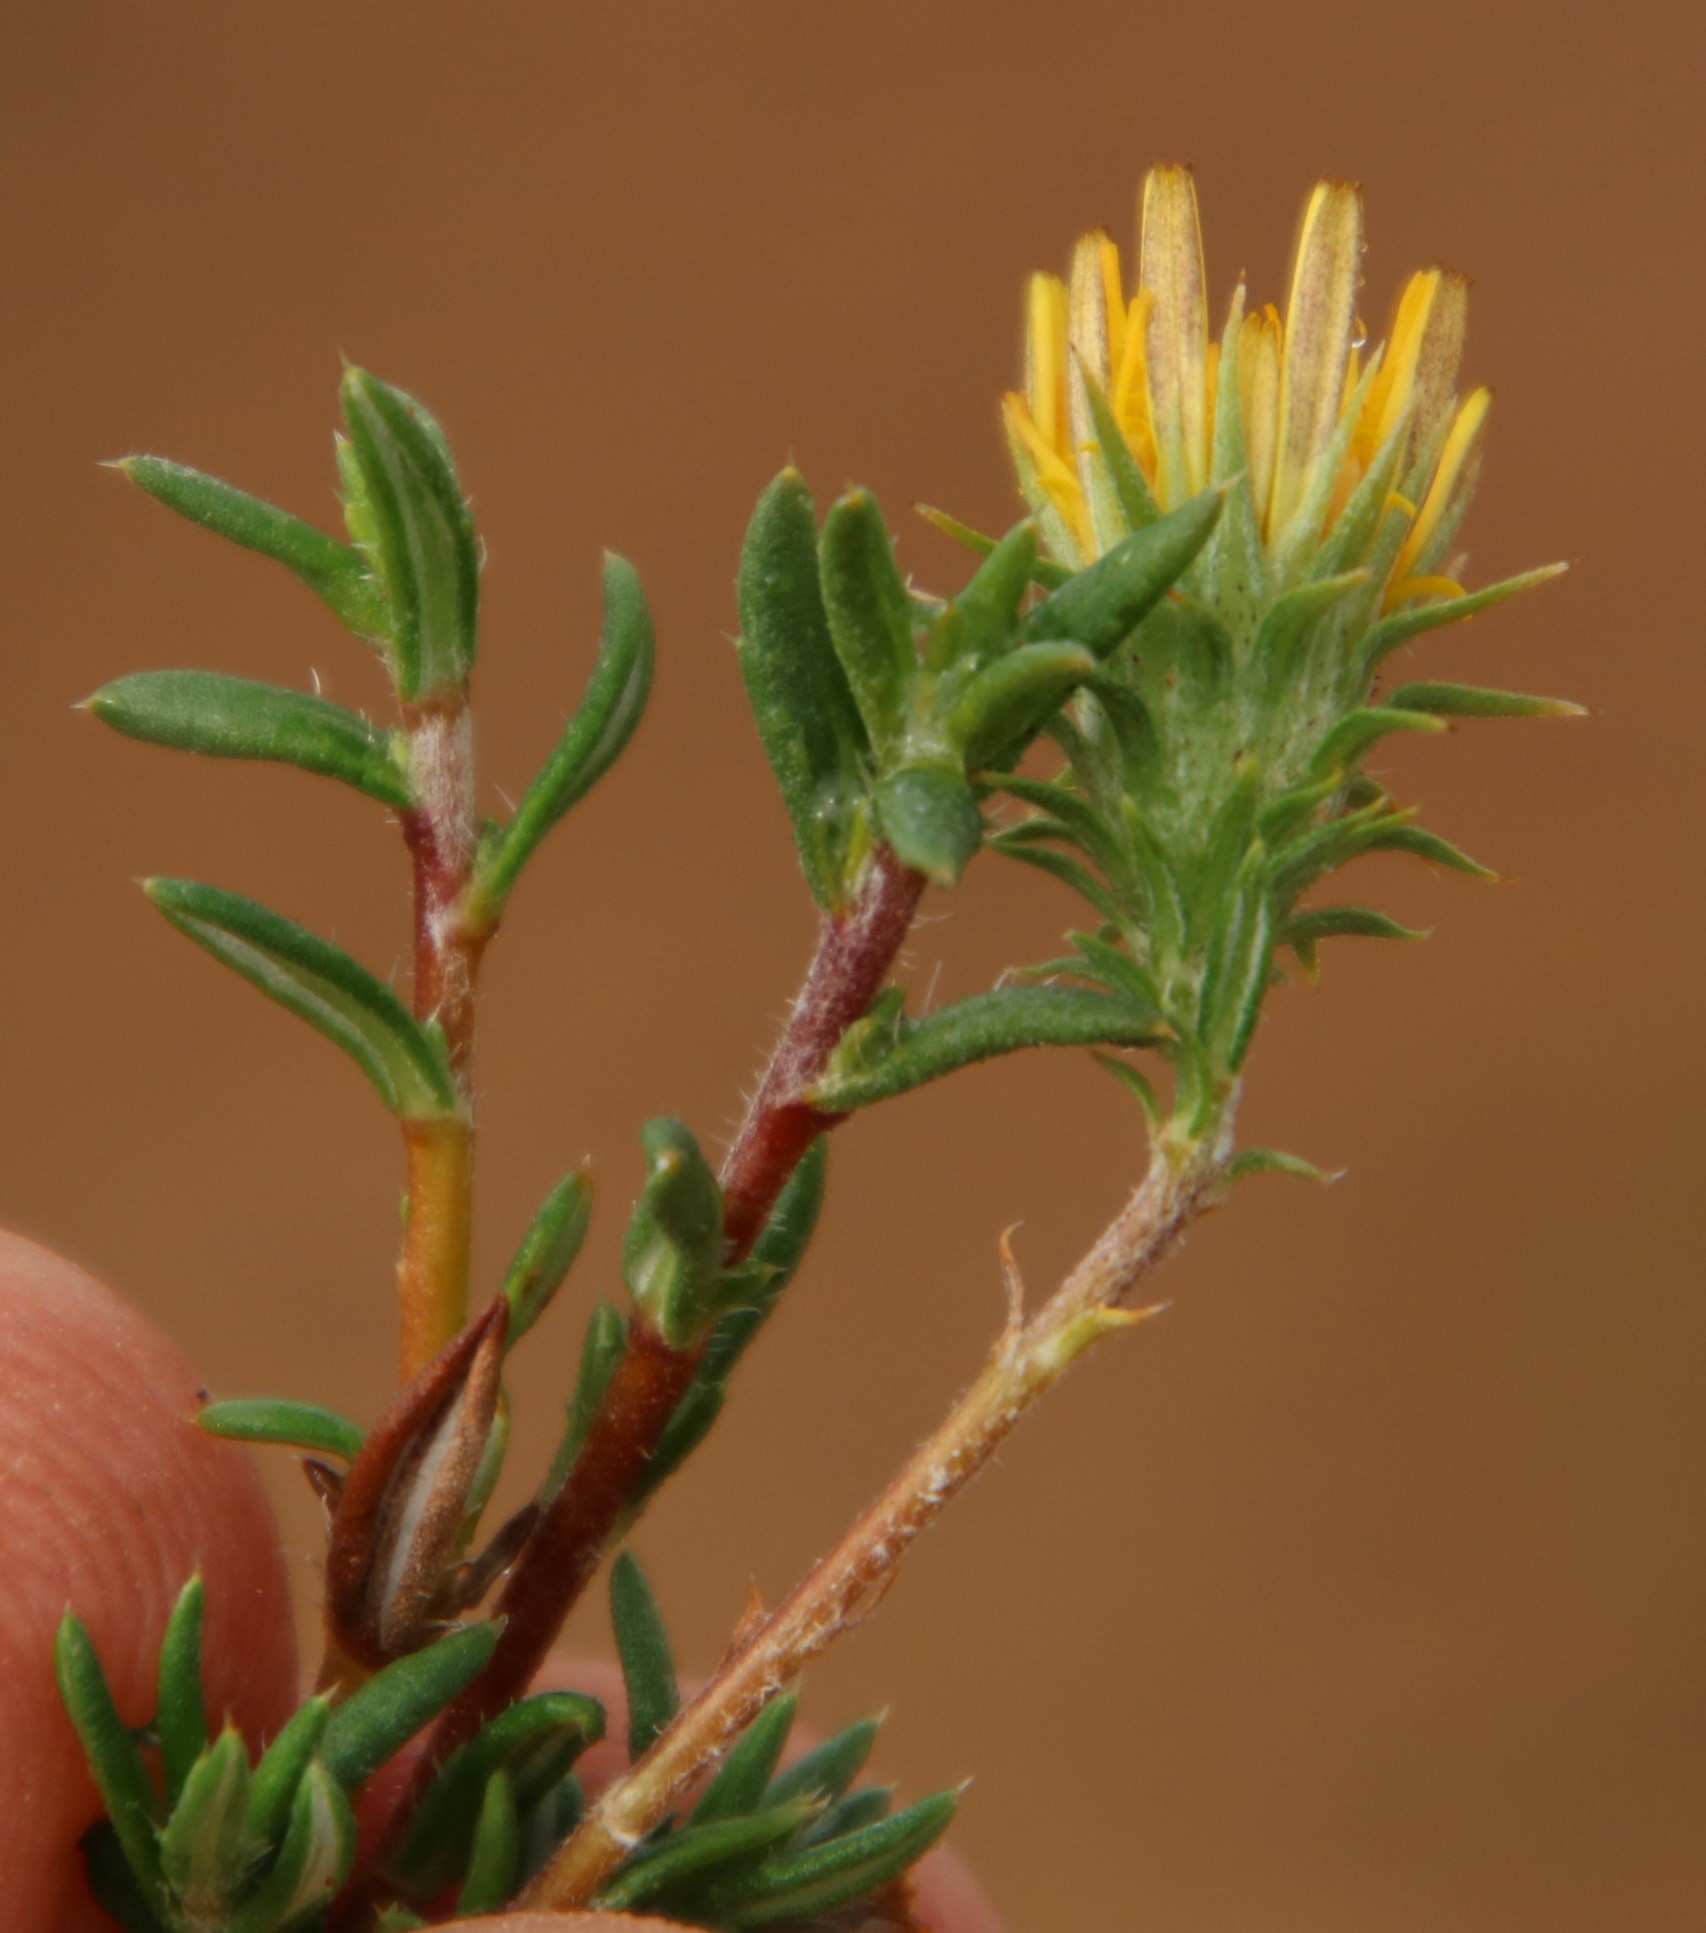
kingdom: Plantae
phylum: Tracheophyta
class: Magnoliopsida
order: Asterales
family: Asteraceae
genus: Gorteria
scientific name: Gorteria alienata
